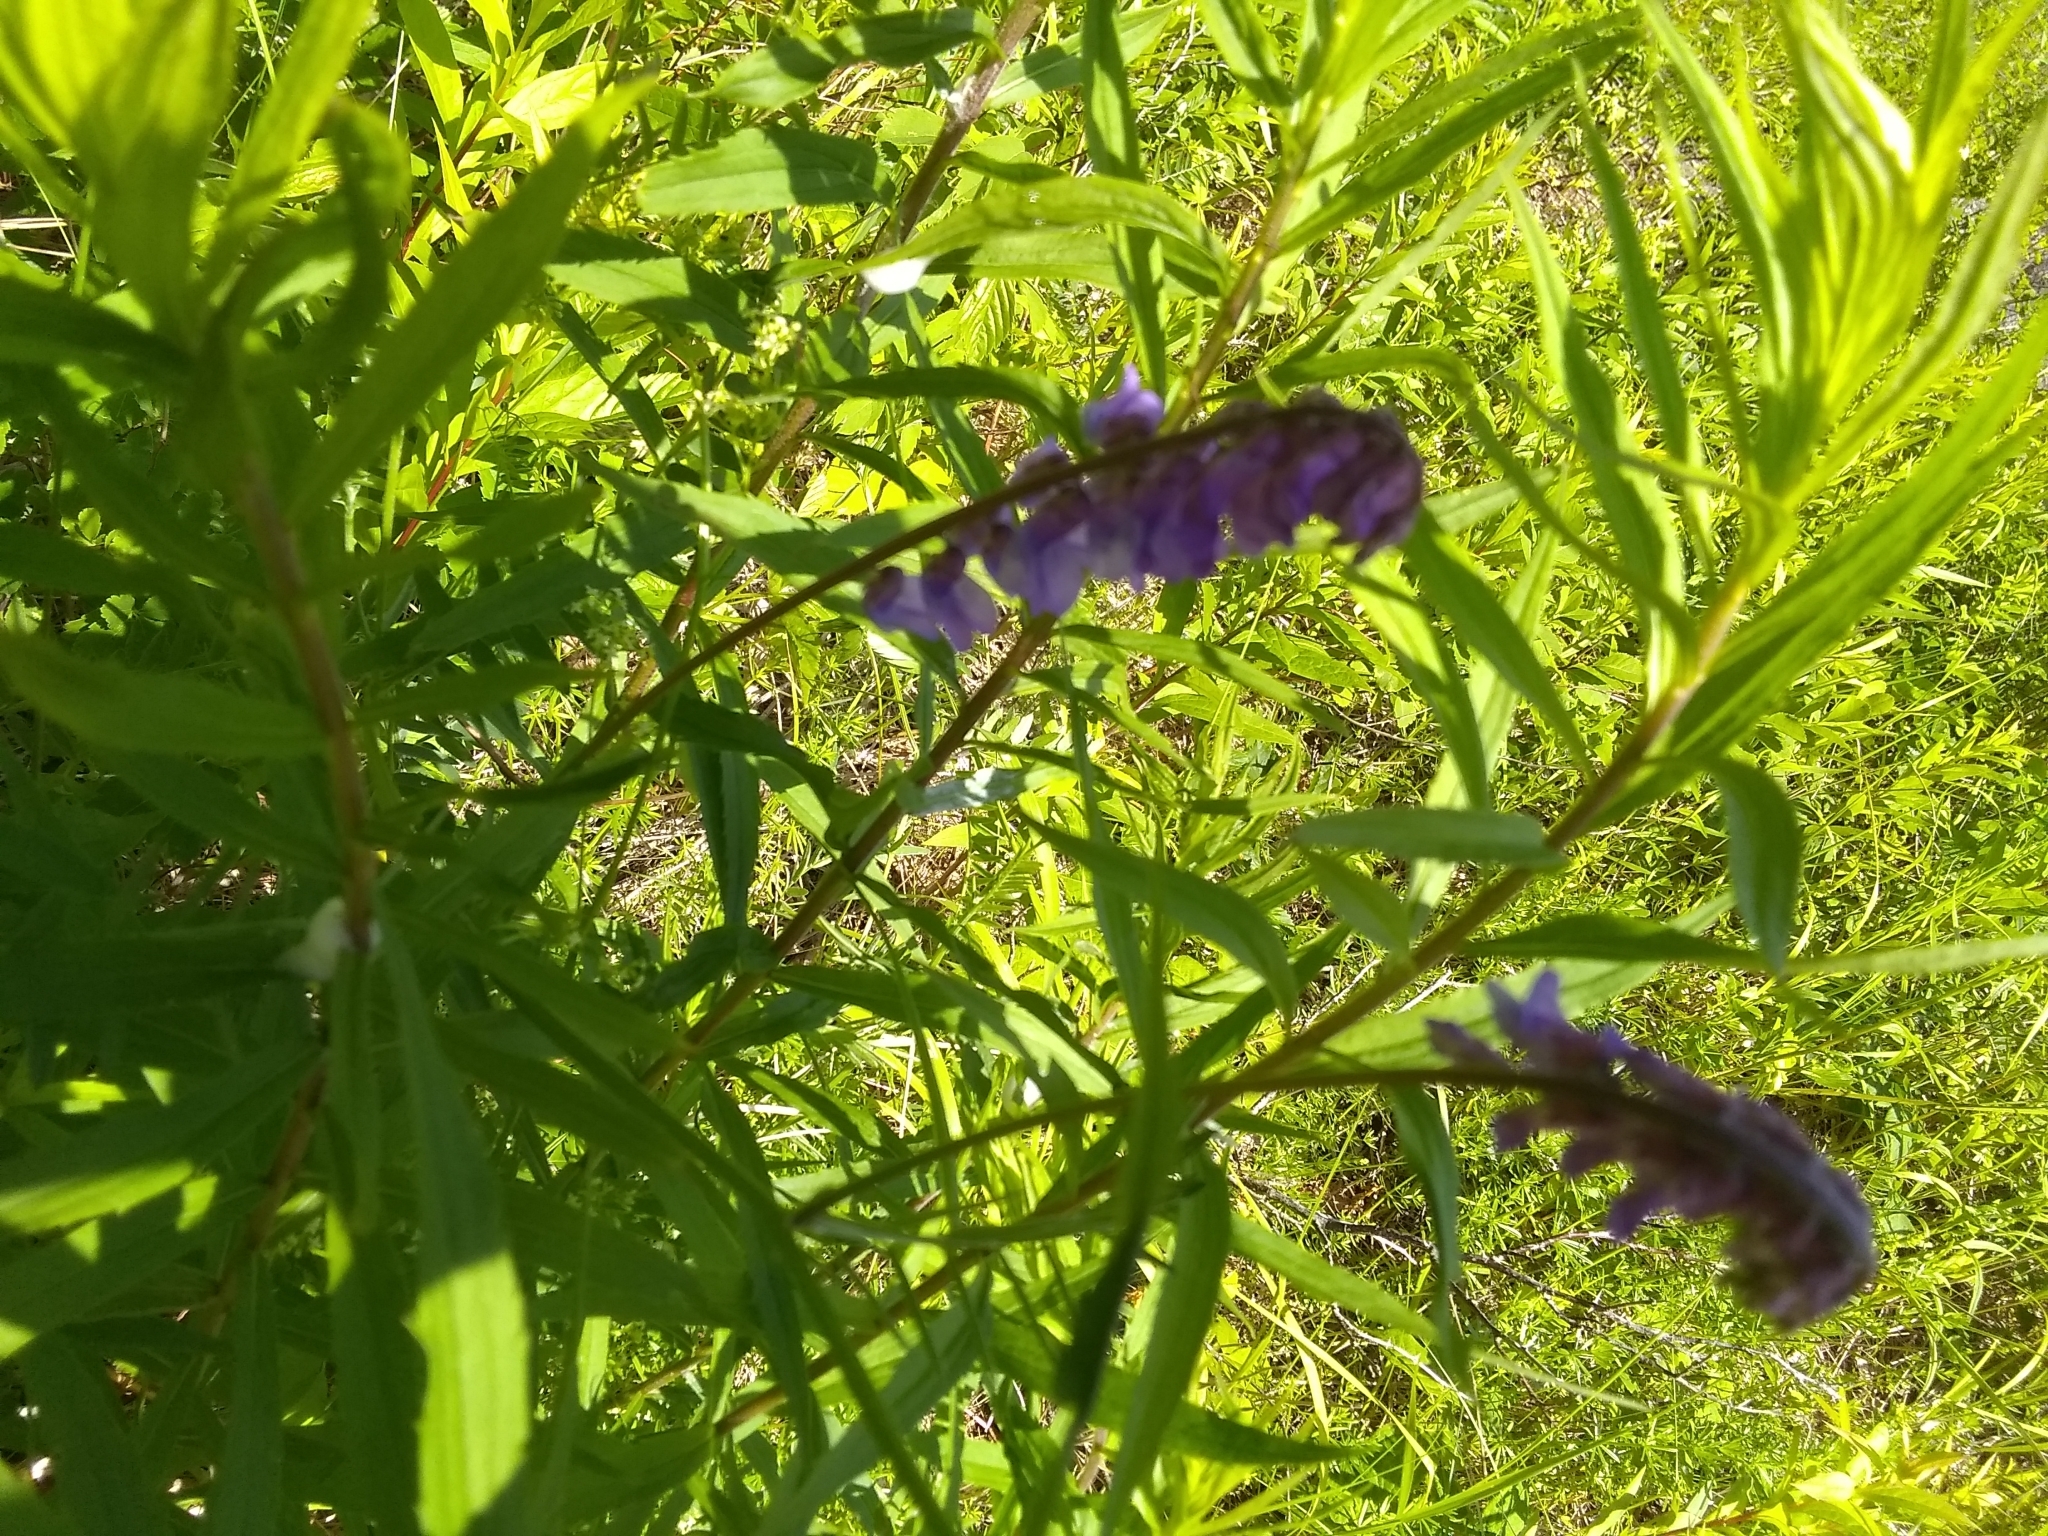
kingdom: Plantae
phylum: Tracheophyta
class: Magnoliopsida
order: Fabales
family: Fabaceae
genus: Vicia
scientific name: Vicia cracca
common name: Bird vetch
